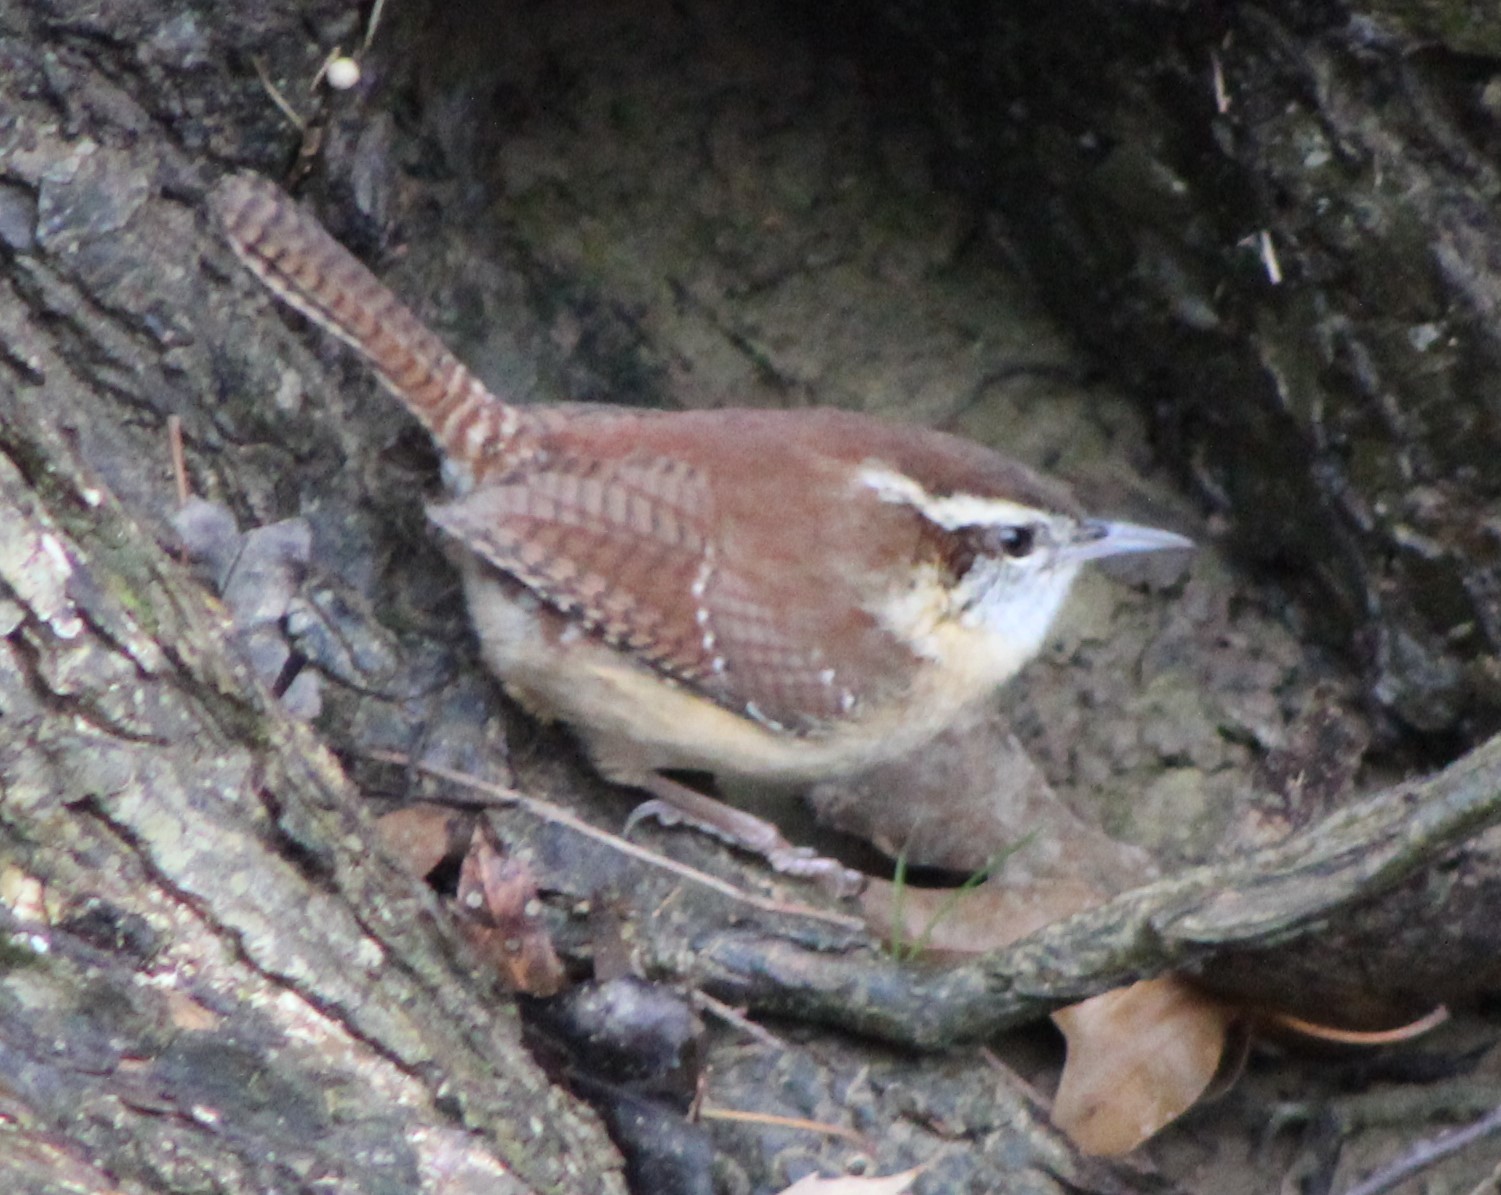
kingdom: Animalia
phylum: Chordata
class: Aves
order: Passeriformes
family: Troglodytidae
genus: Thryothorus
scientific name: Thryothorus ludovicianus
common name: Carolina wren
